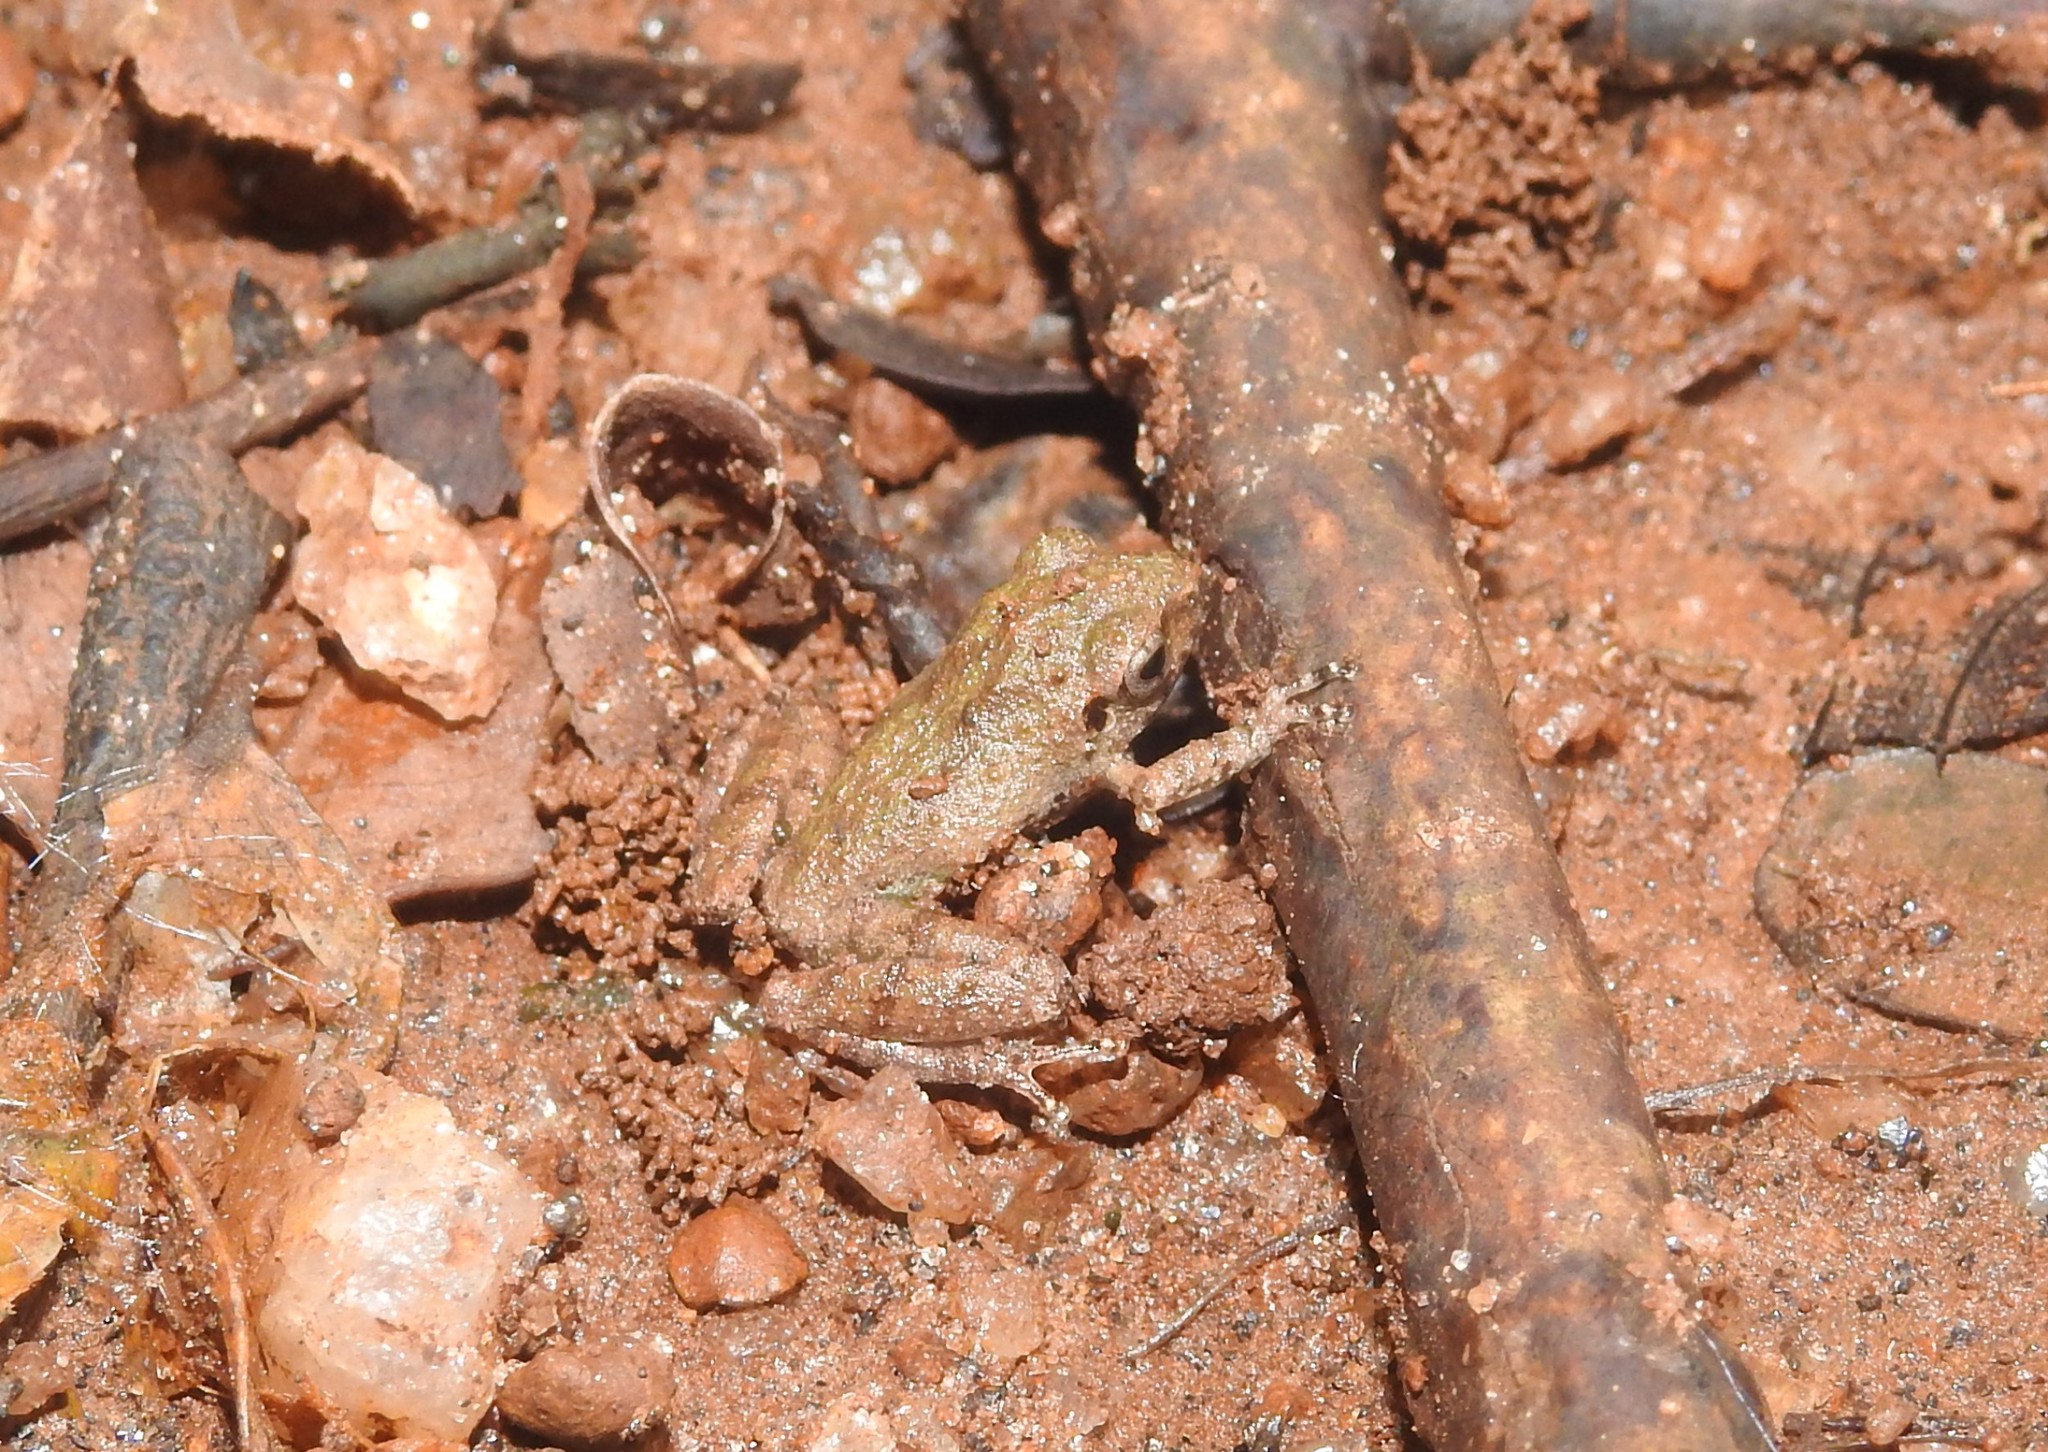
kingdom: Animalia
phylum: Chordata
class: Amphibia
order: Anura
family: Dicroglossidae
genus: Euphlyctis
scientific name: Euphlyctis cyanophlyctis
